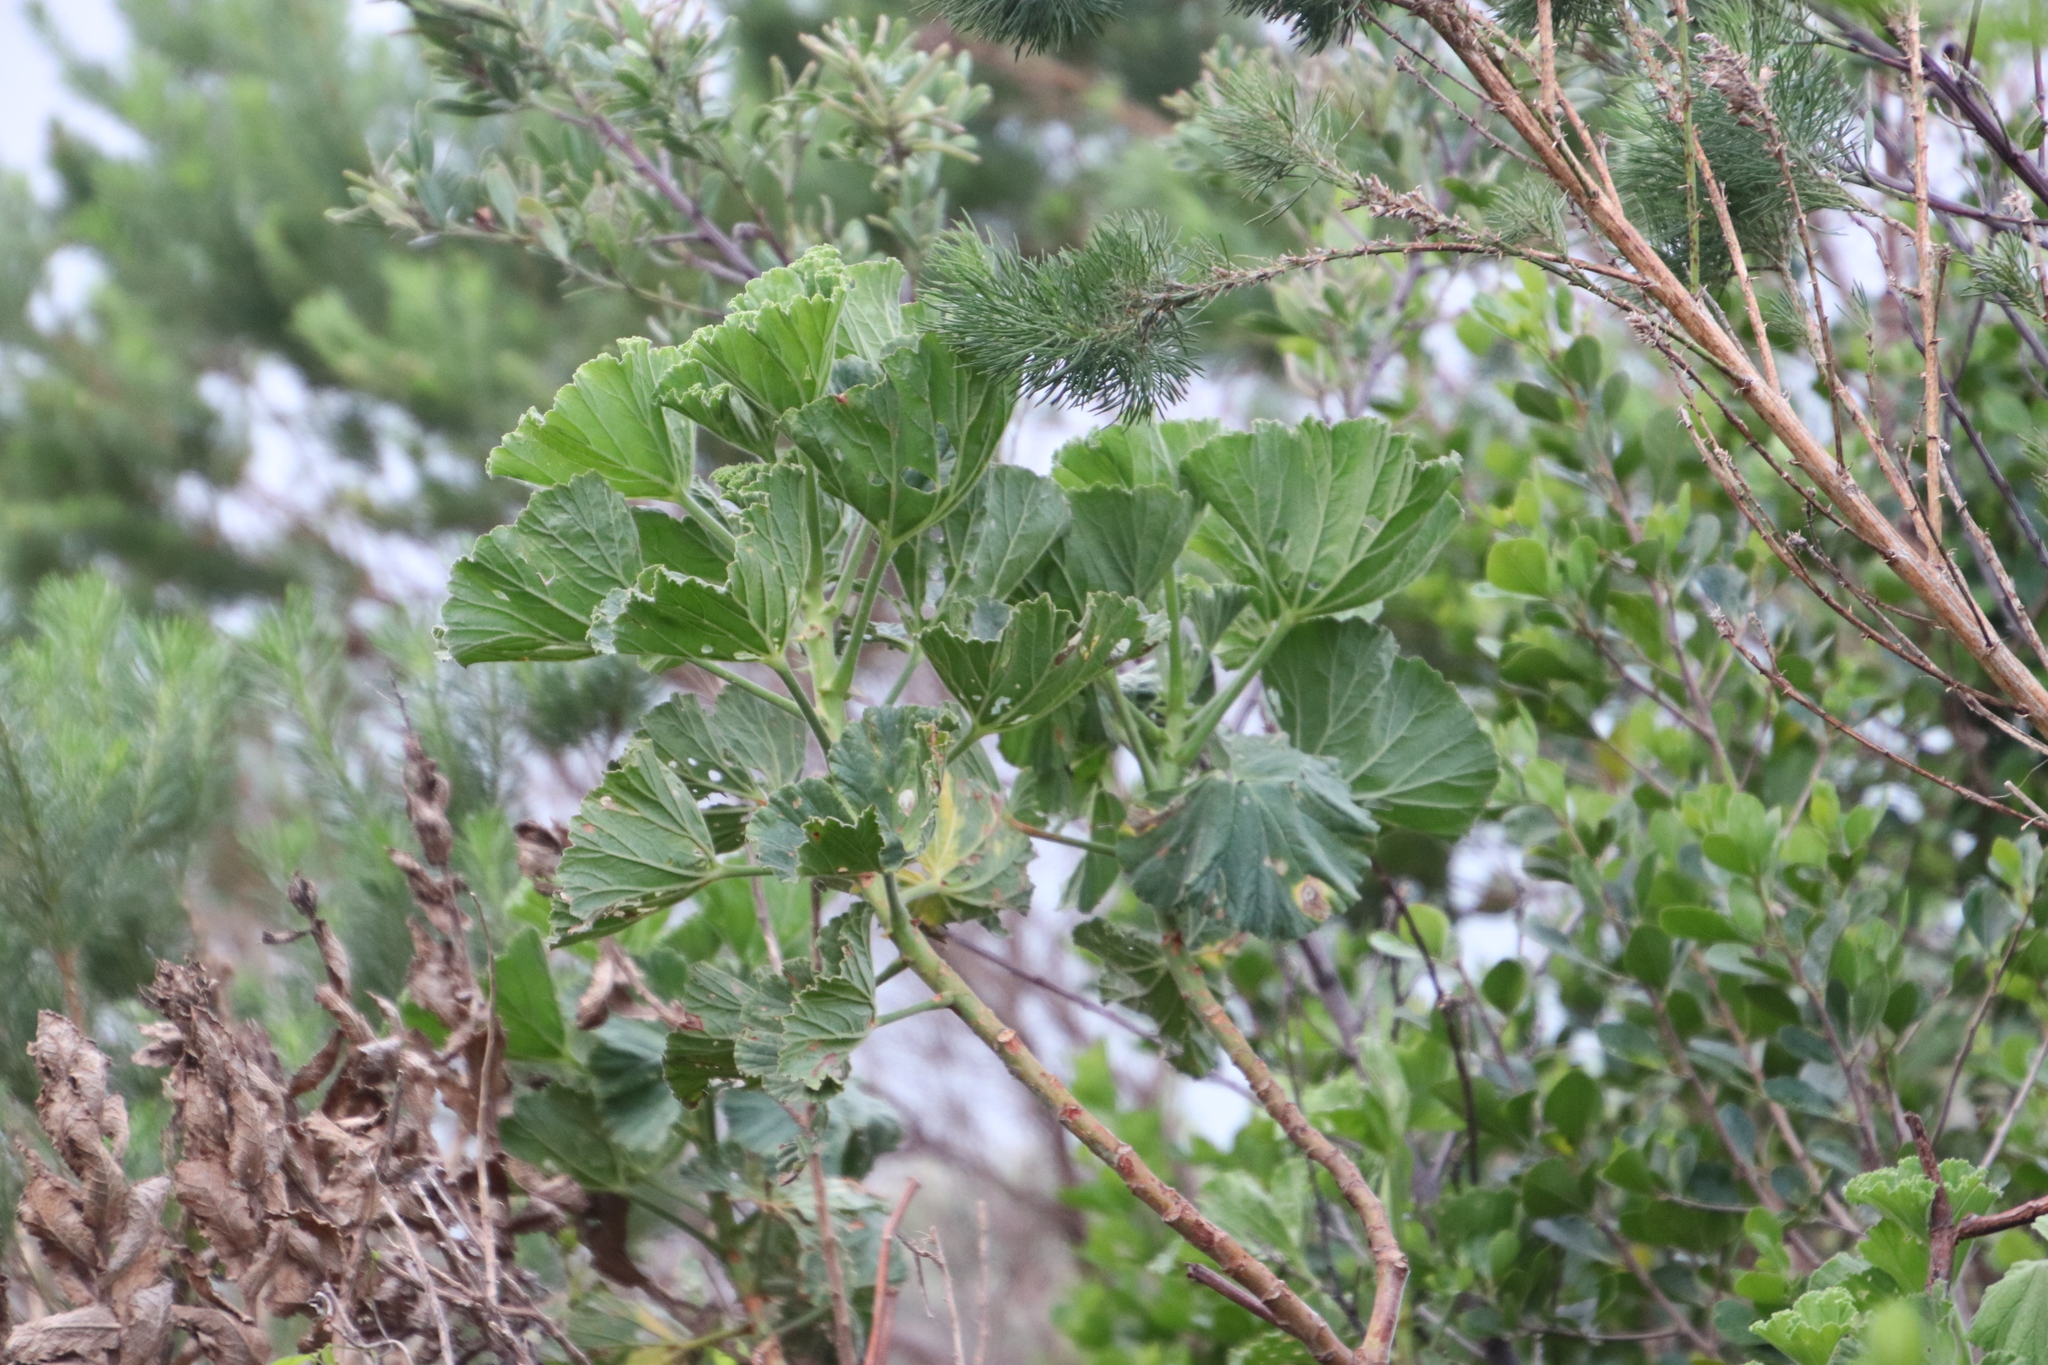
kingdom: Plantae
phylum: Tracheophyta
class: Magnoliopsida
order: Geraniales
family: Geraniaceae
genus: Pelargonium
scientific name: Pelargonium cucullatum
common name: Tree pelargonium
